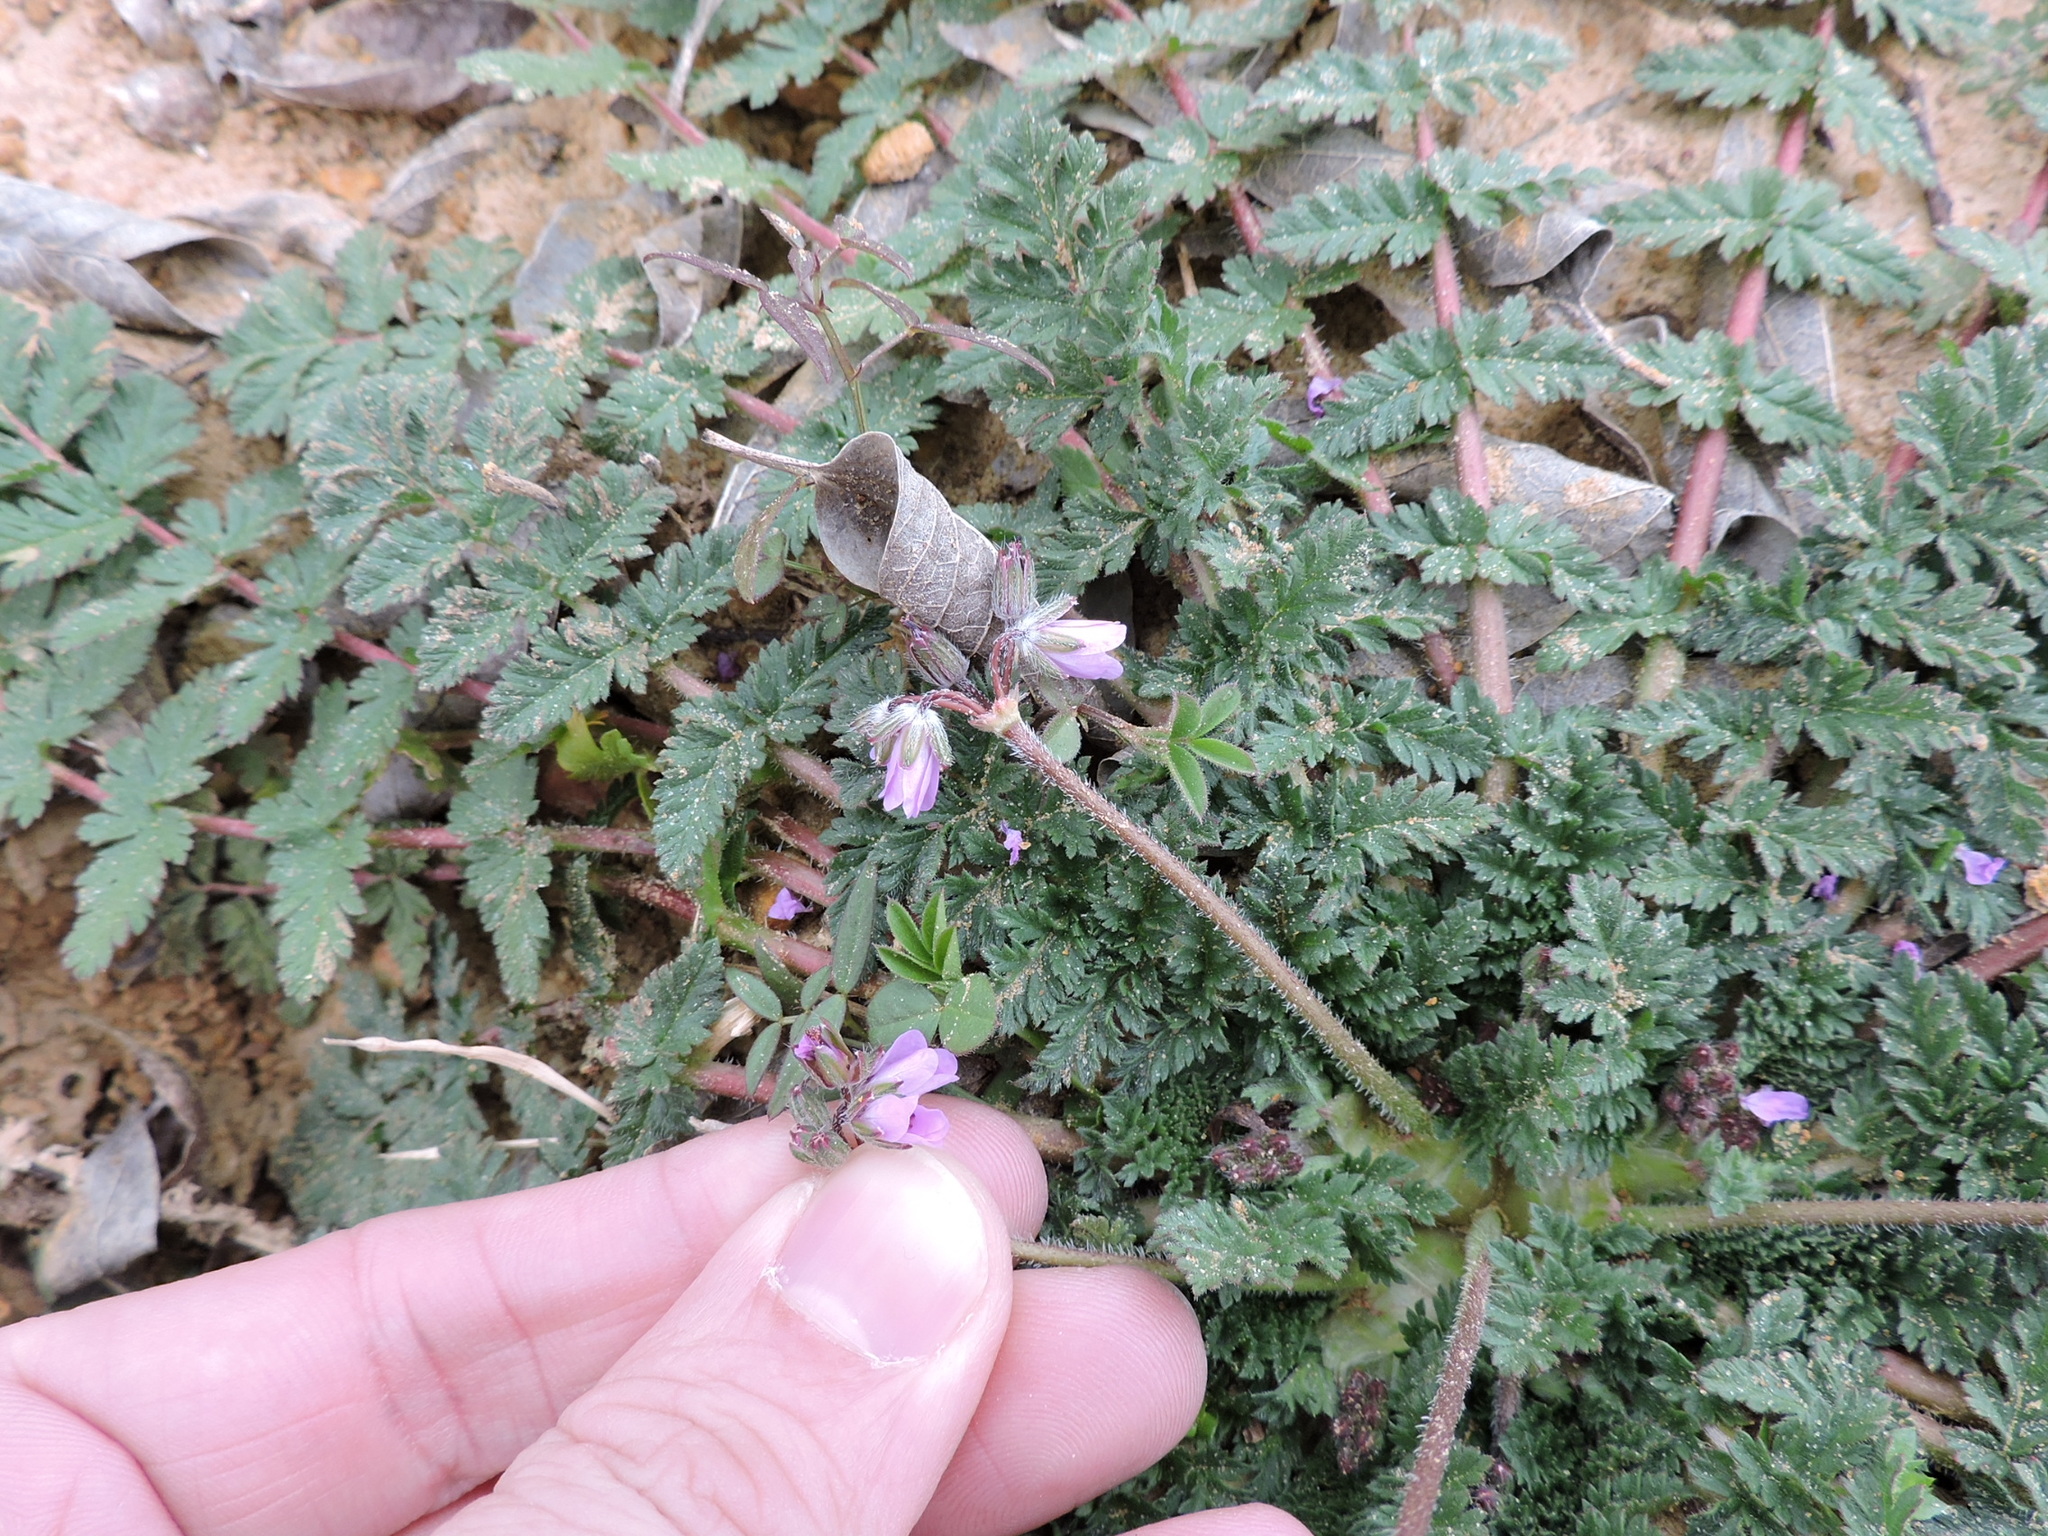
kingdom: Plantae
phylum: Tracheophyta
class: Magnoliopsida
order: Geraniales
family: Geraniaceae
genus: Erodium
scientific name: Erodium cicutarium
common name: Common stork's-bill
